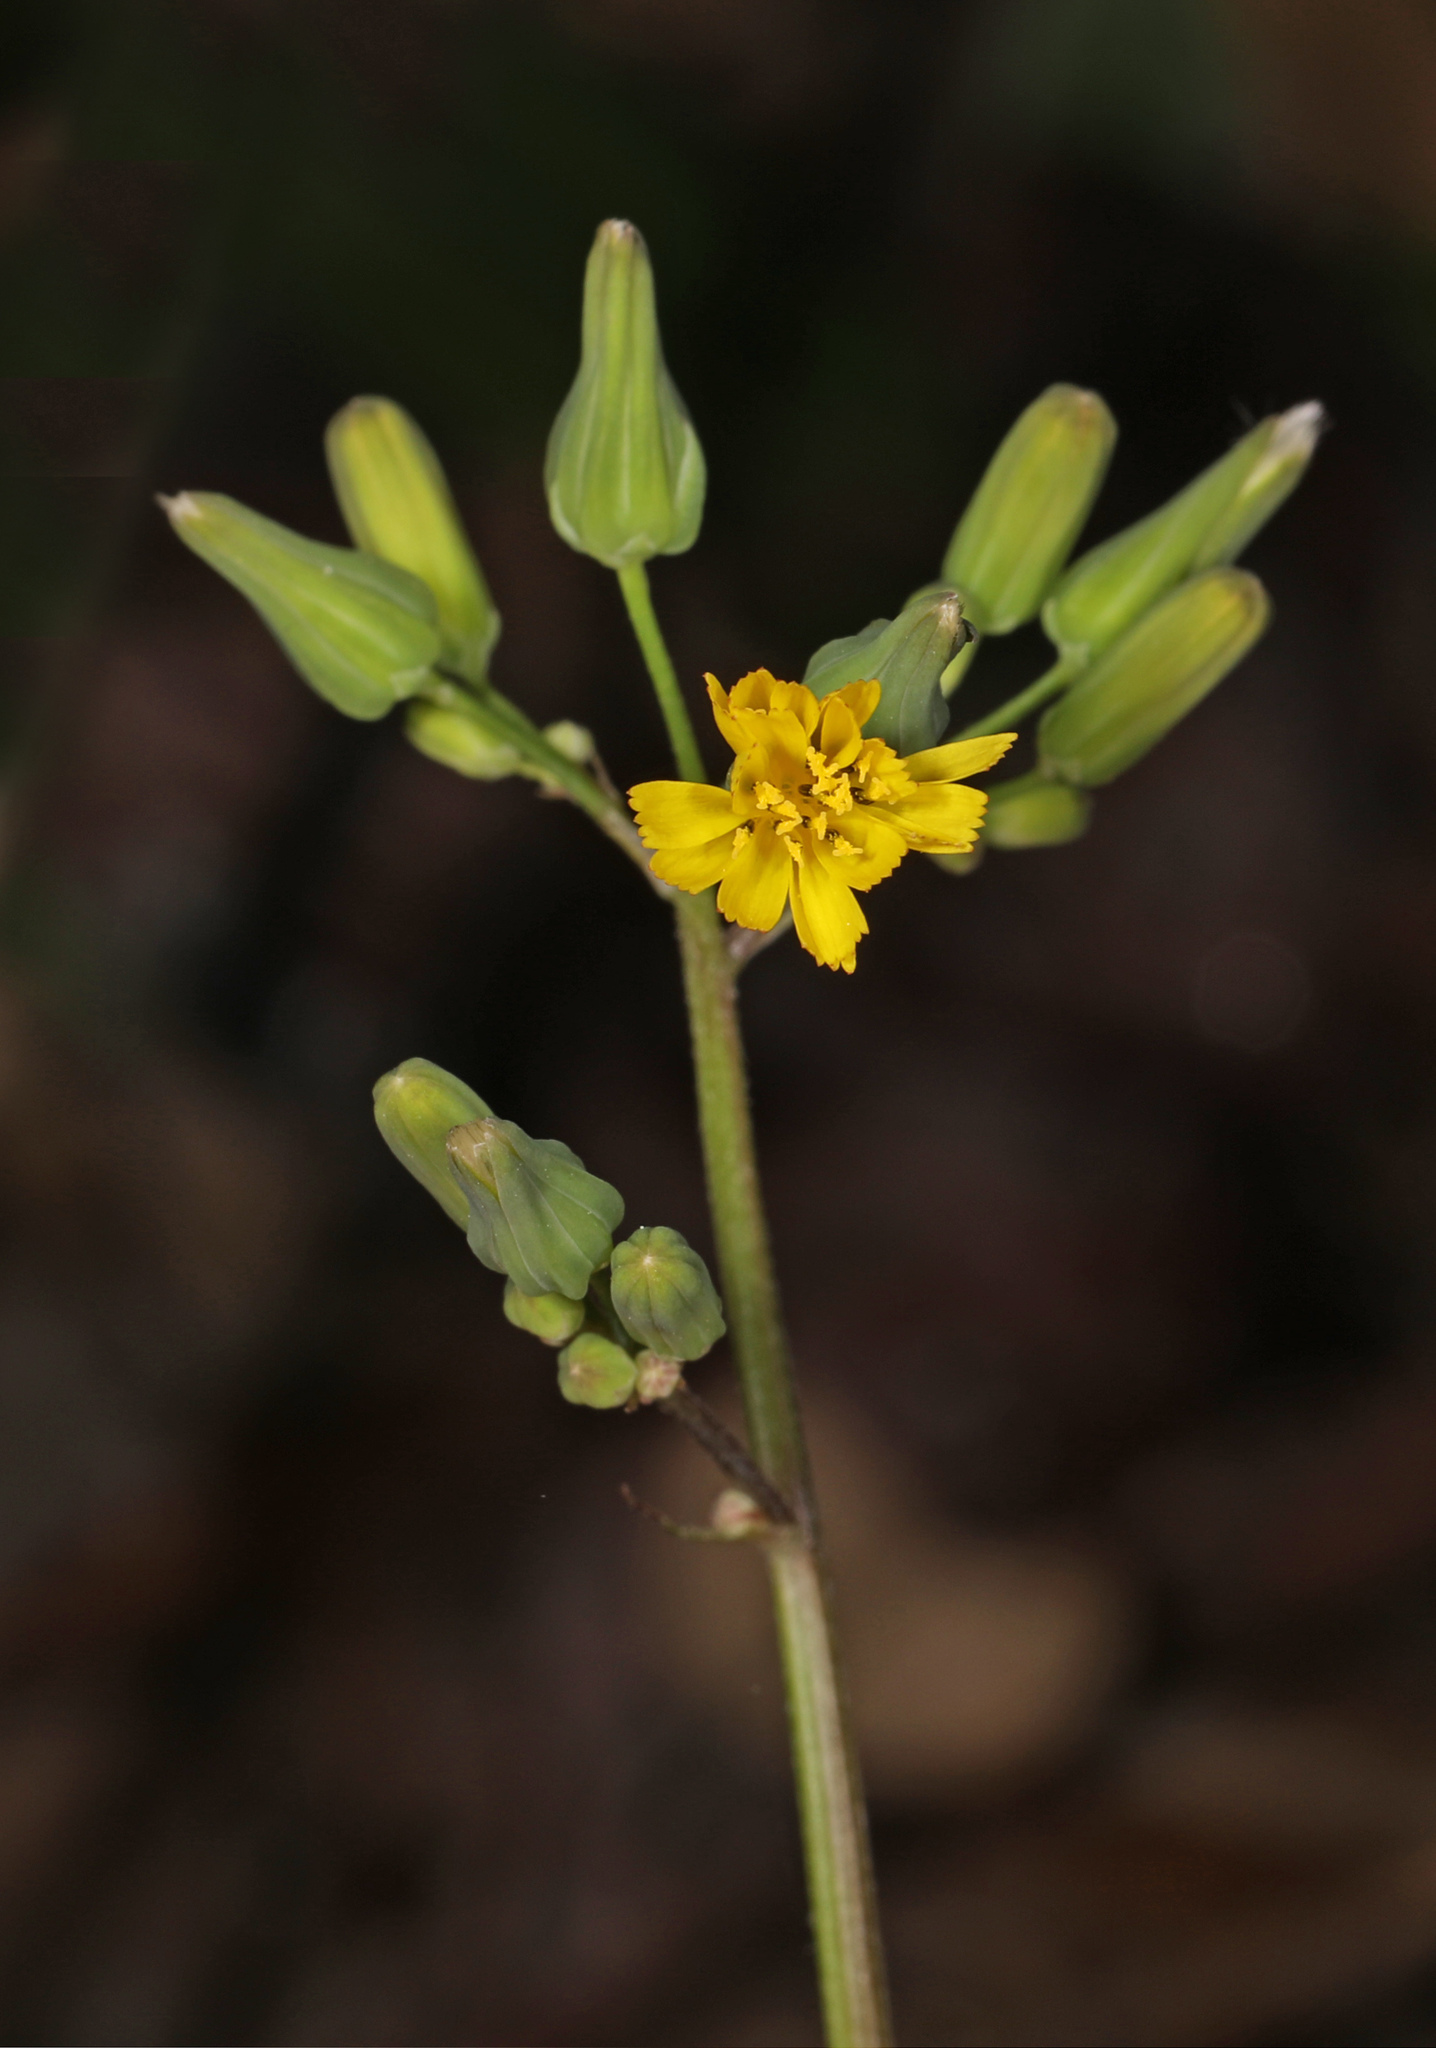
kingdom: Plantae
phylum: Tracheophyta
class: Magnoliopsida
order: Asterales
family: Asteraceae
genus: Youngia
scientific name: Youngia japonica
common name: Oriental false hawksbeard
